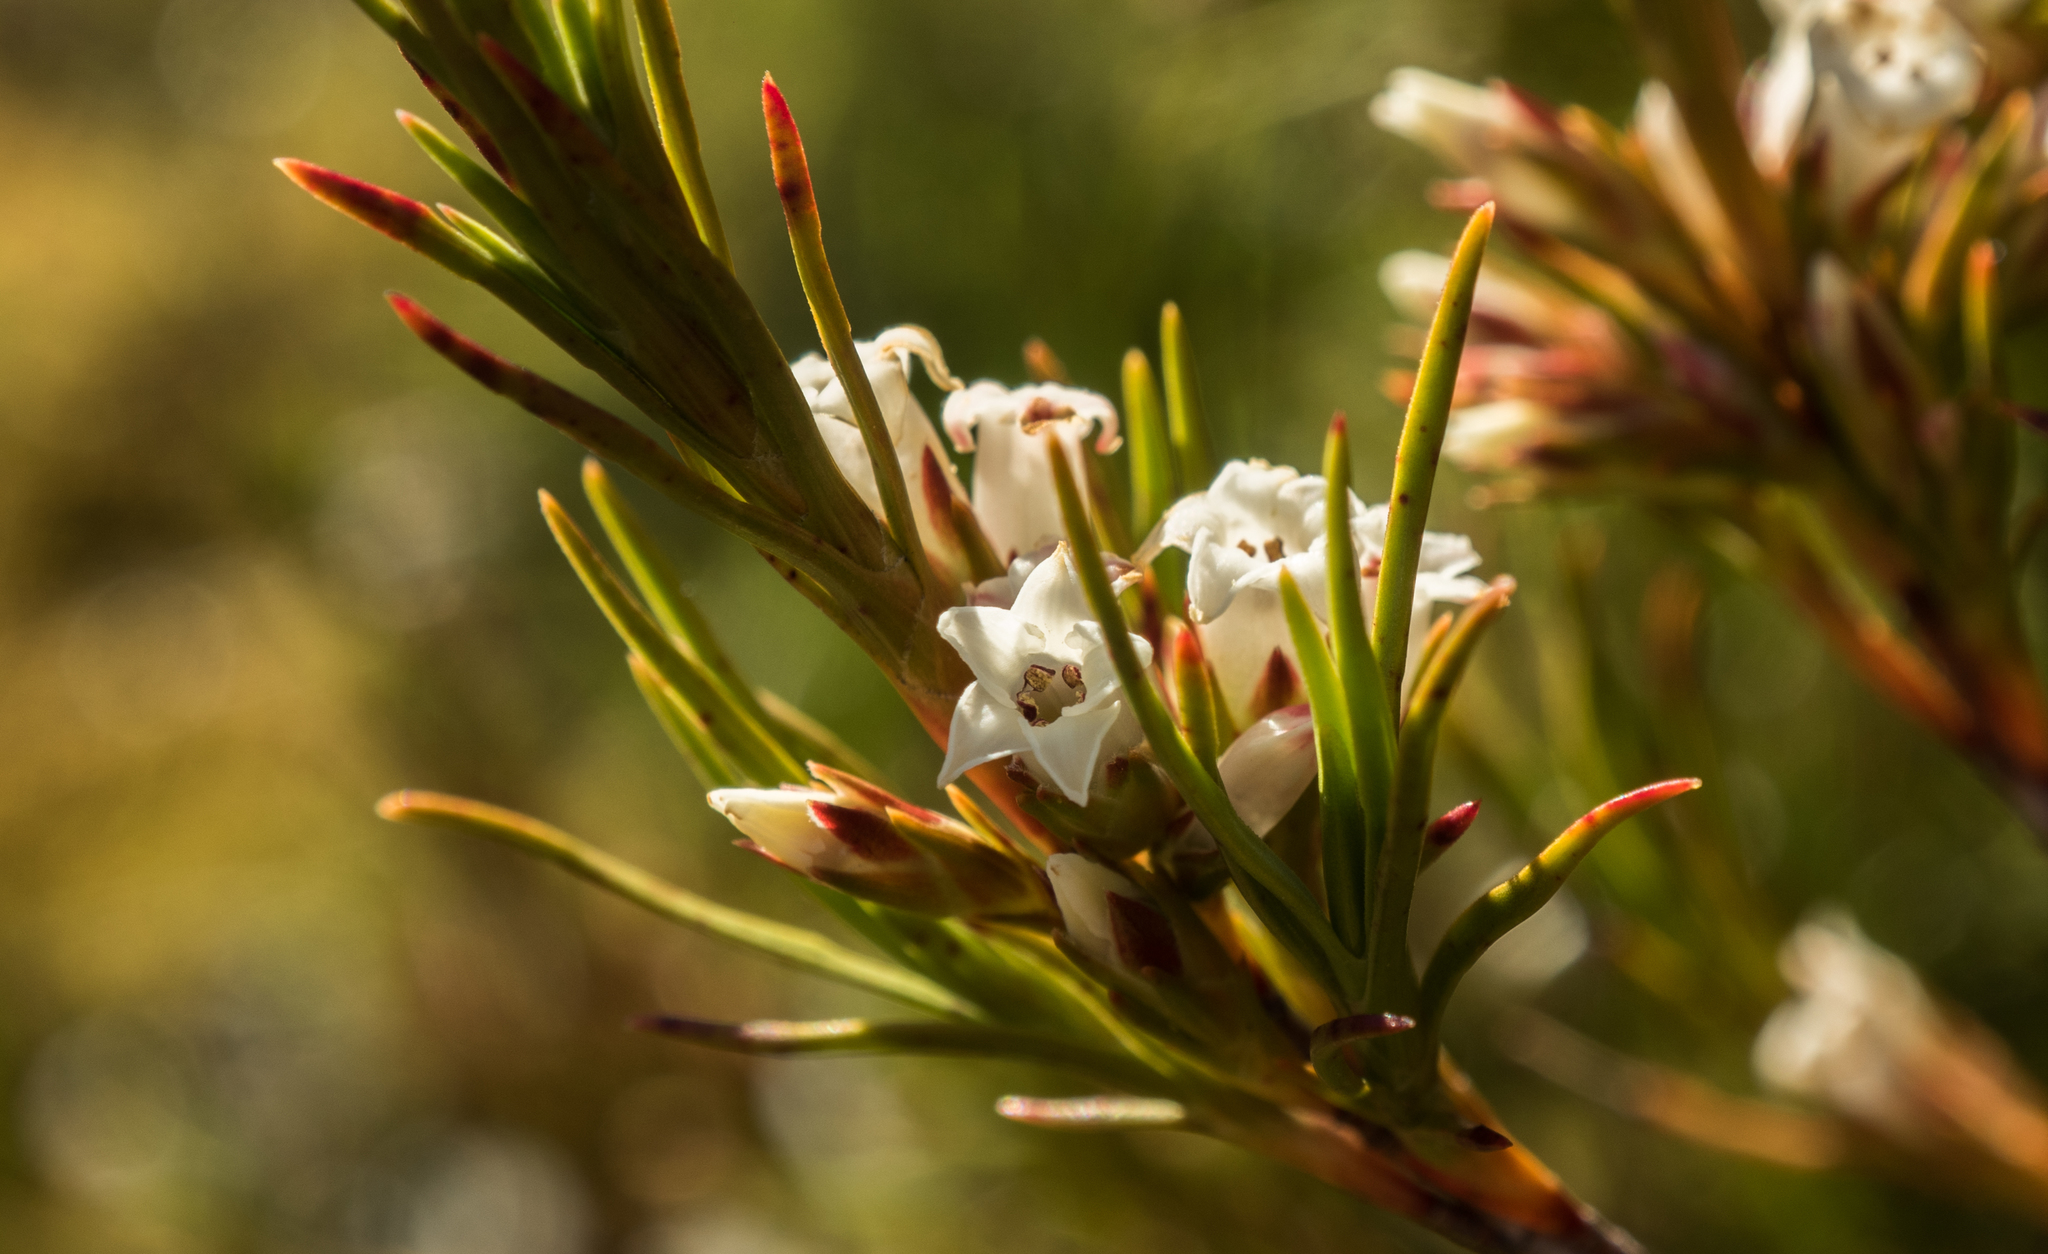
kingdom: Plantae
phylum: Tracheophyta
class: Magnoliopsida
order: Ericales
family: Ericaceae
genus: Dracophyllum
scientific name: Dracophyllum rosmarinifolium
